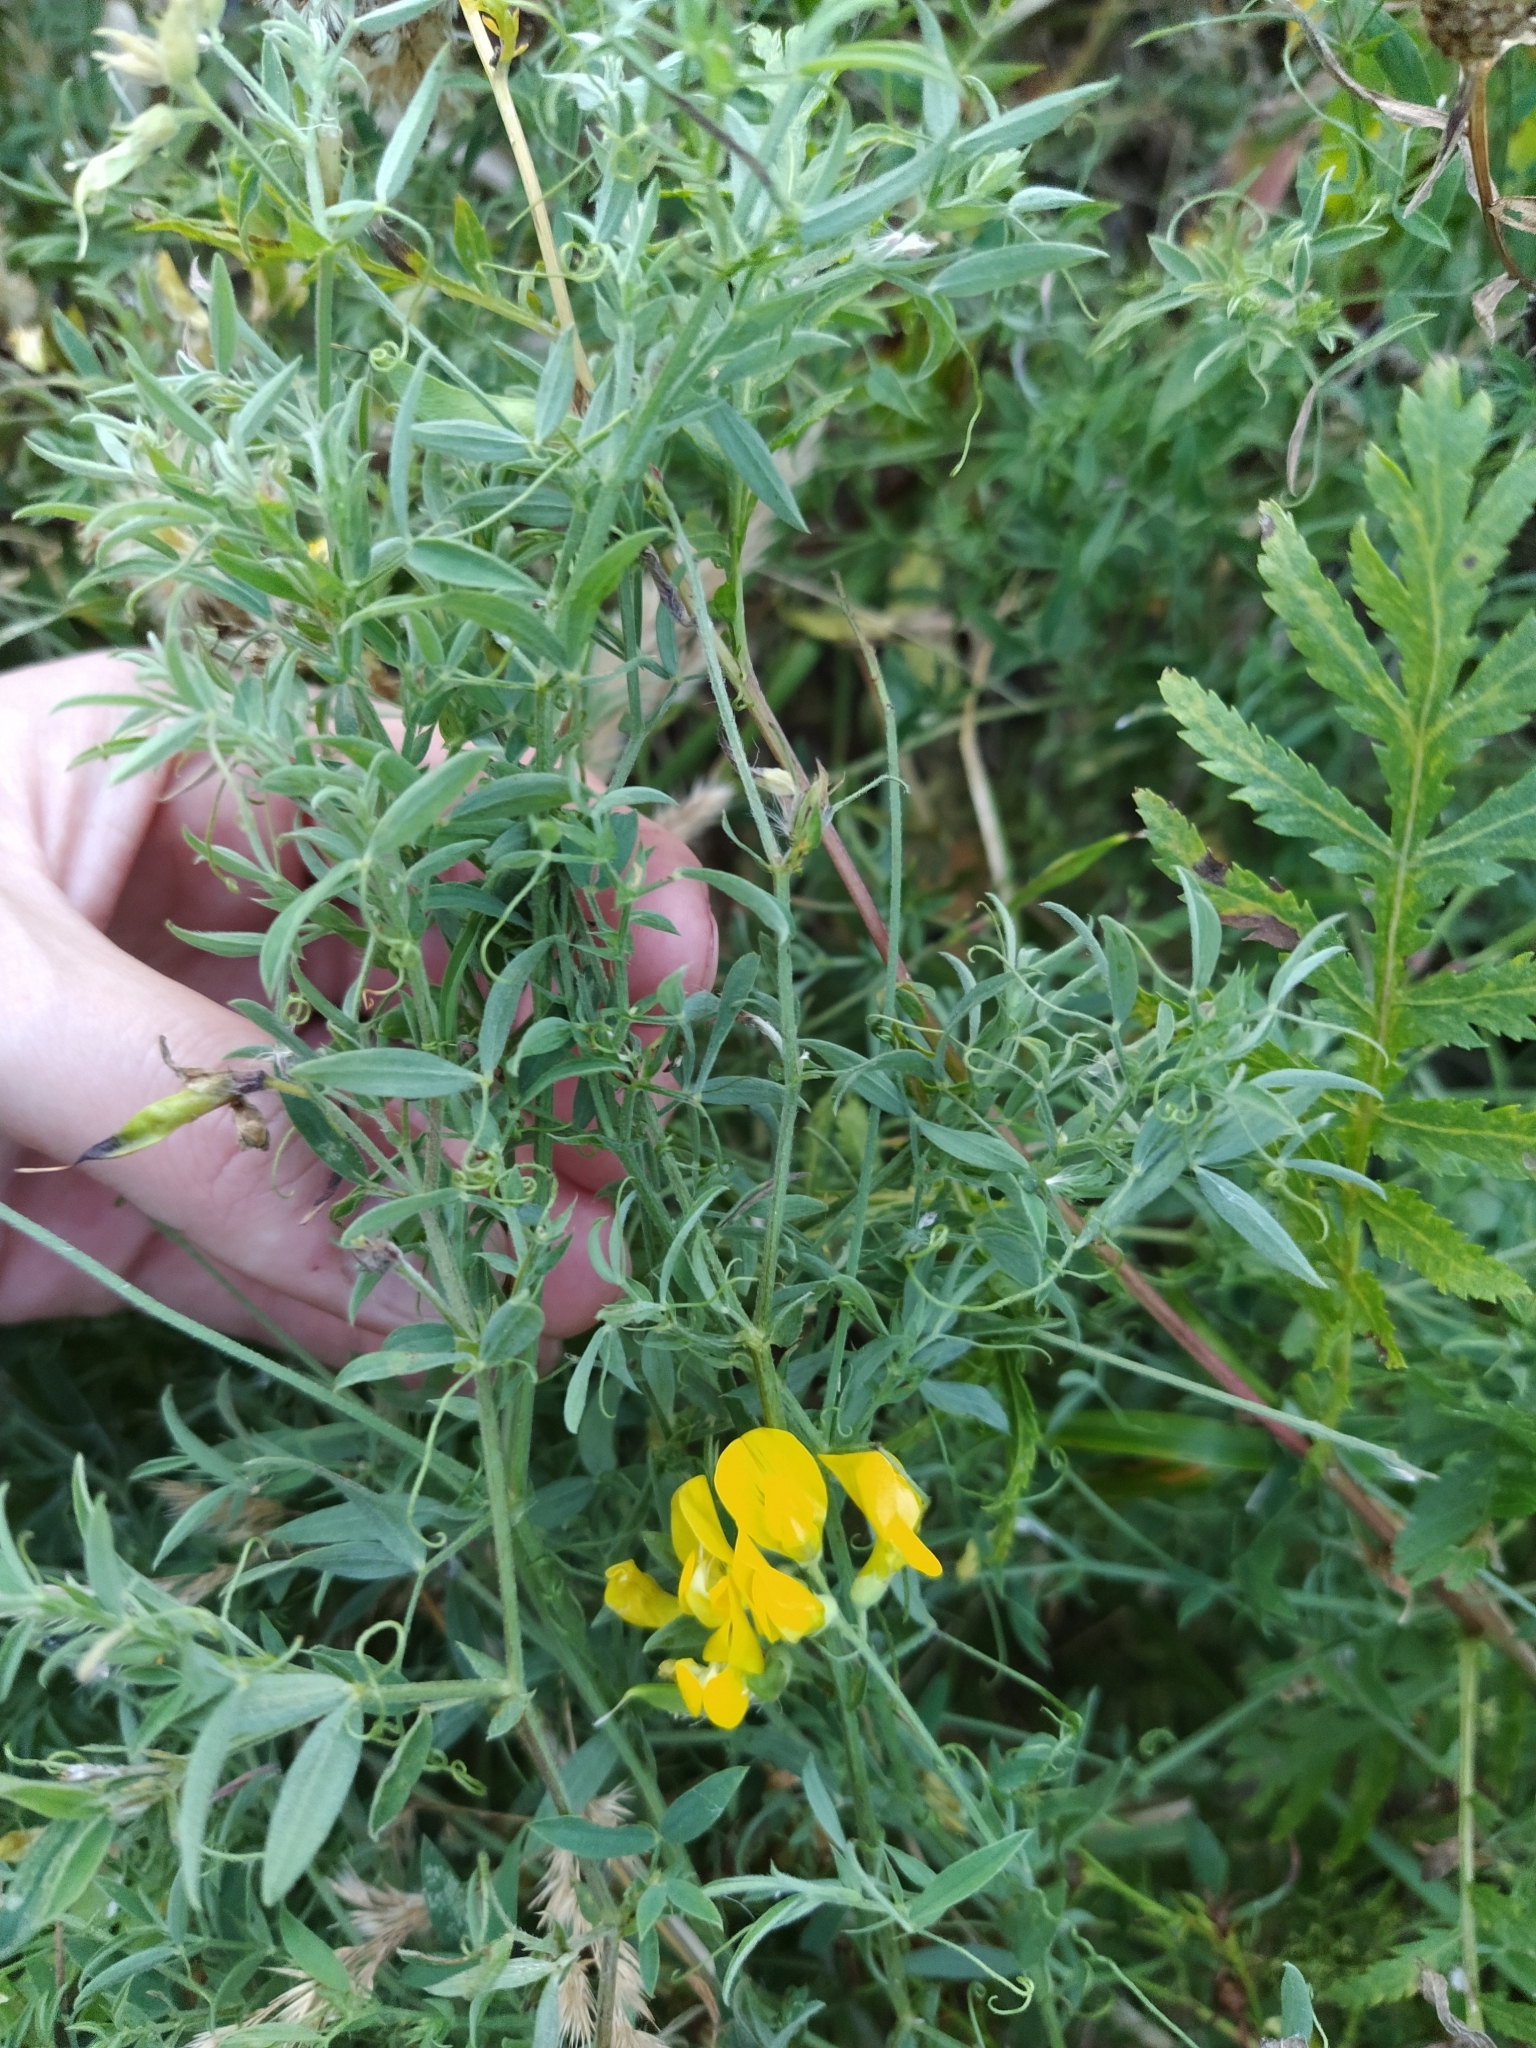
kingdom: Plantae
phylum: Tracheophyta
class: Magnoliopsida
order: Fabales
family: Fabaceae
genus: Lathyrus
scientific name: Lathyrus pratensis
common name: Meadow vetchling
